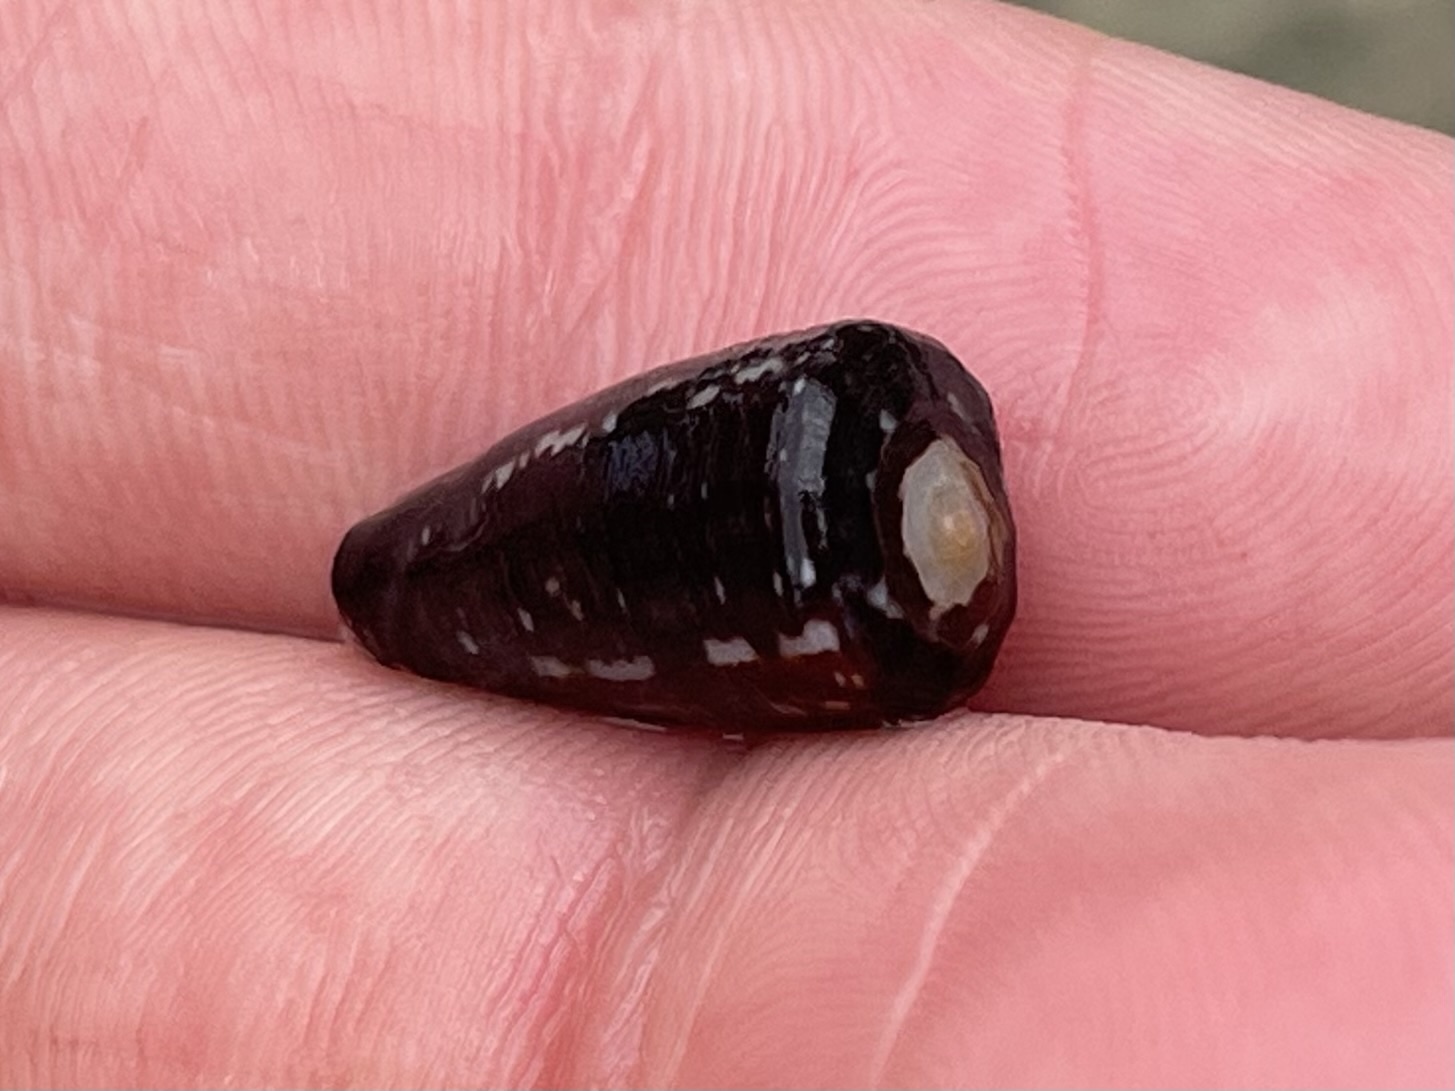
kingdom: Animalia
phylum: Mollusca
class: Gastropoda
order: Neogastropoda
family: Harpidae
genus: Morum
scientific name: Morum tuberculosum
